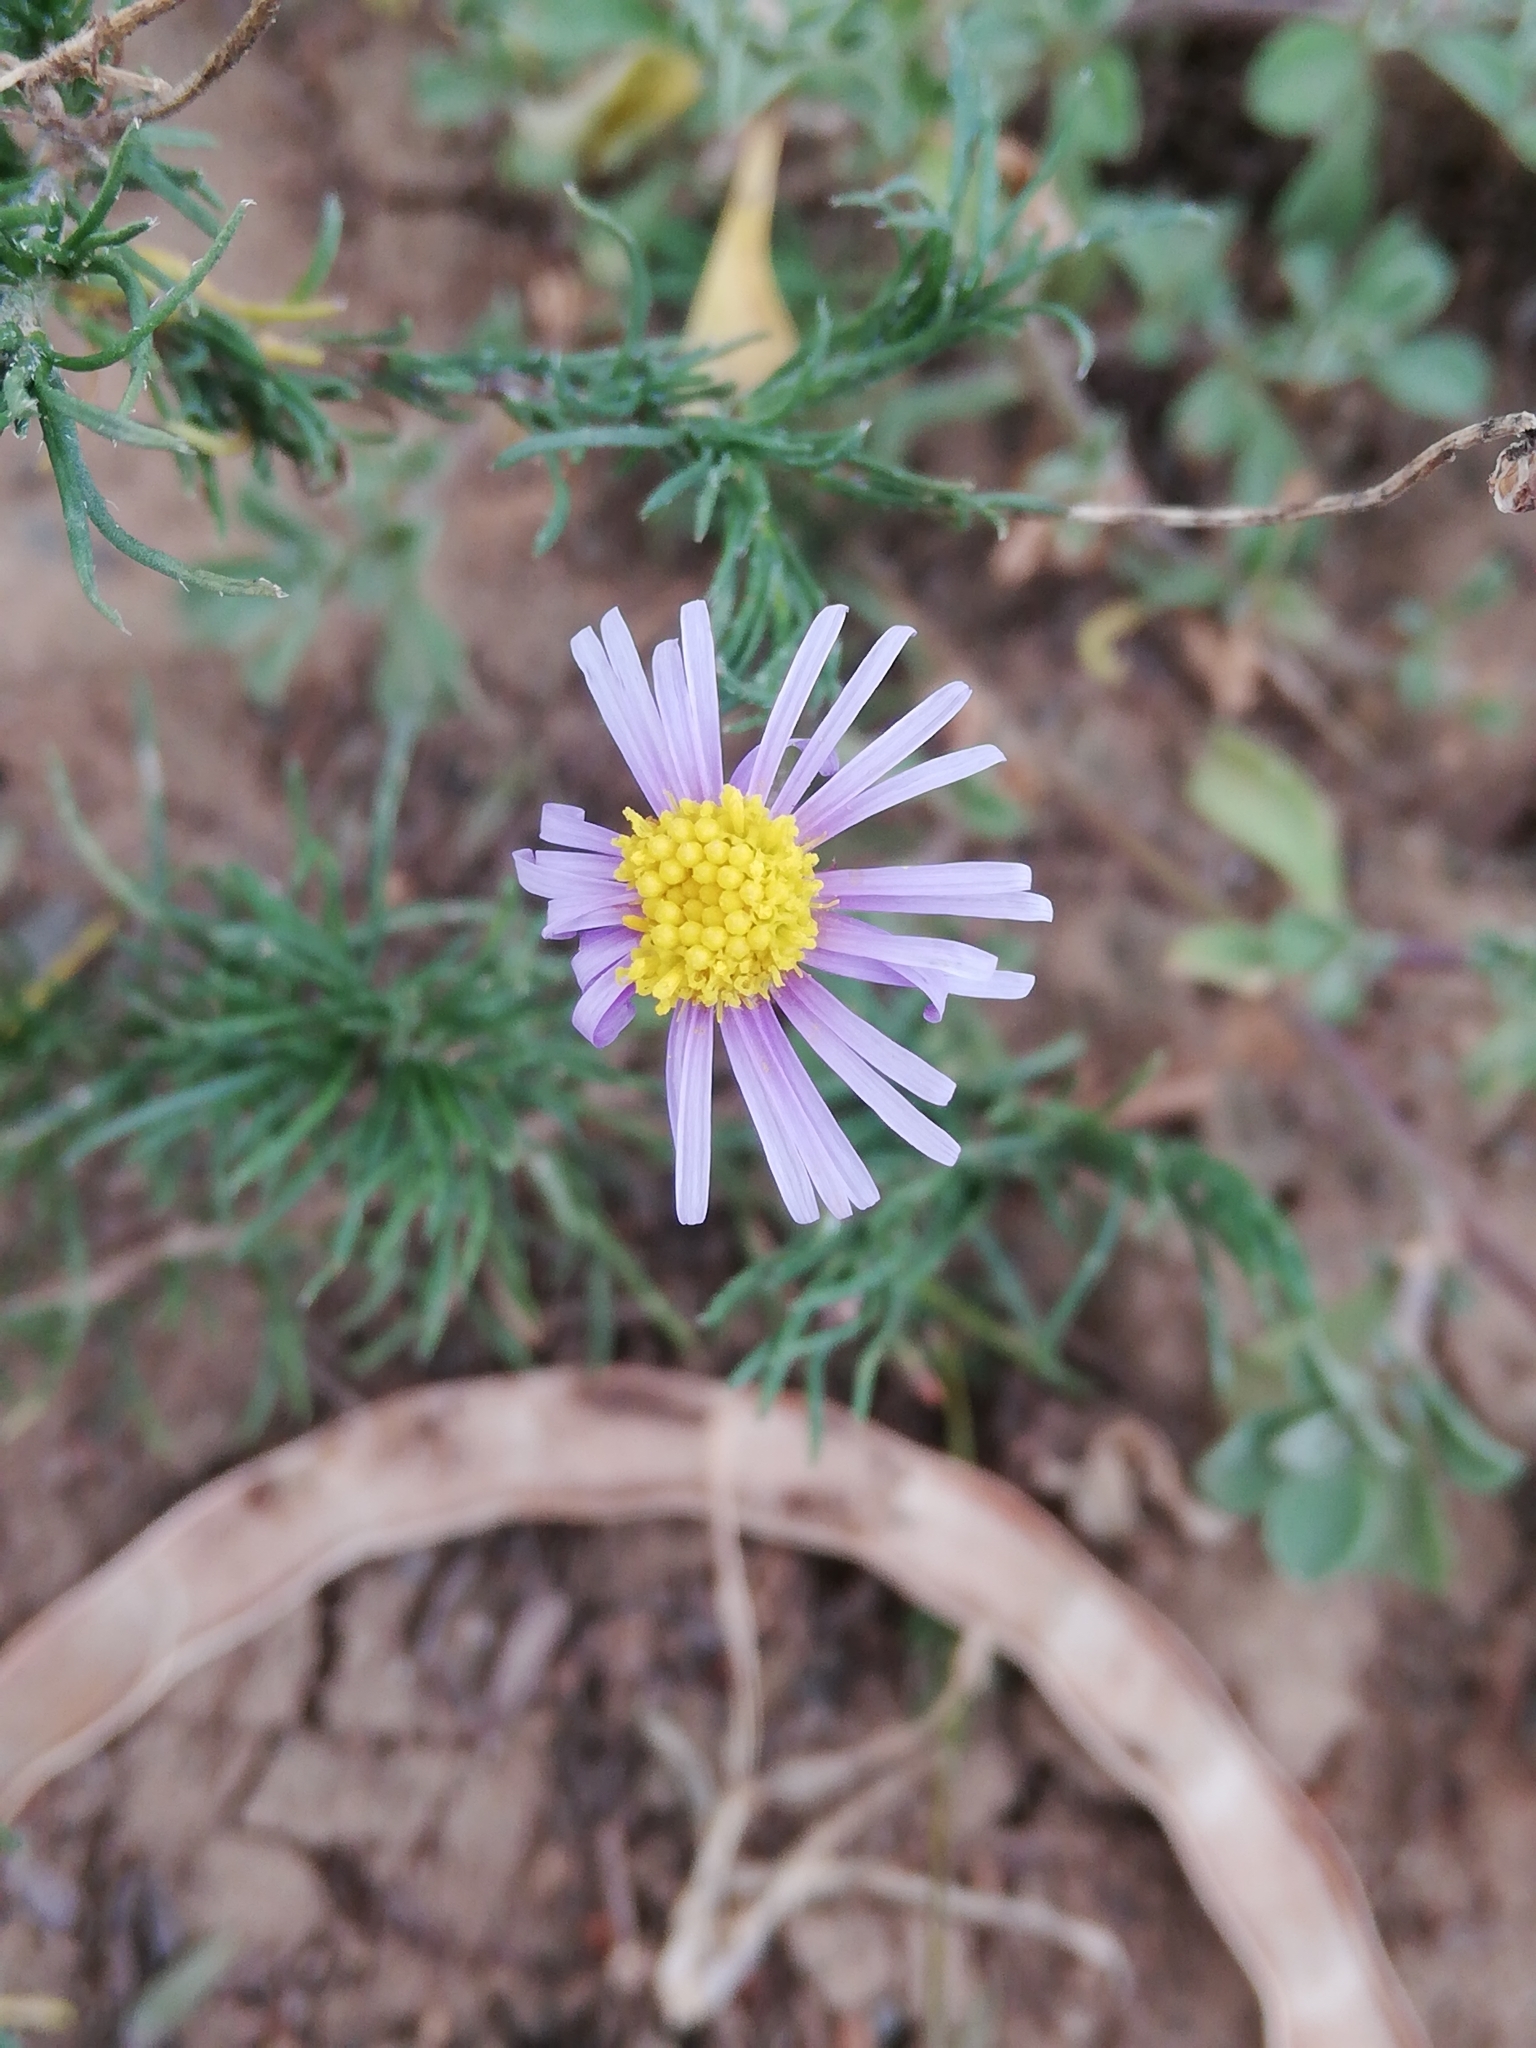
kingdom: Plantae
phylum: Tracheophyta
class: Magnoliopsida
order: Asterales
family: Asteraceae
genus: Felicia
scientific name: Felicia muricata
